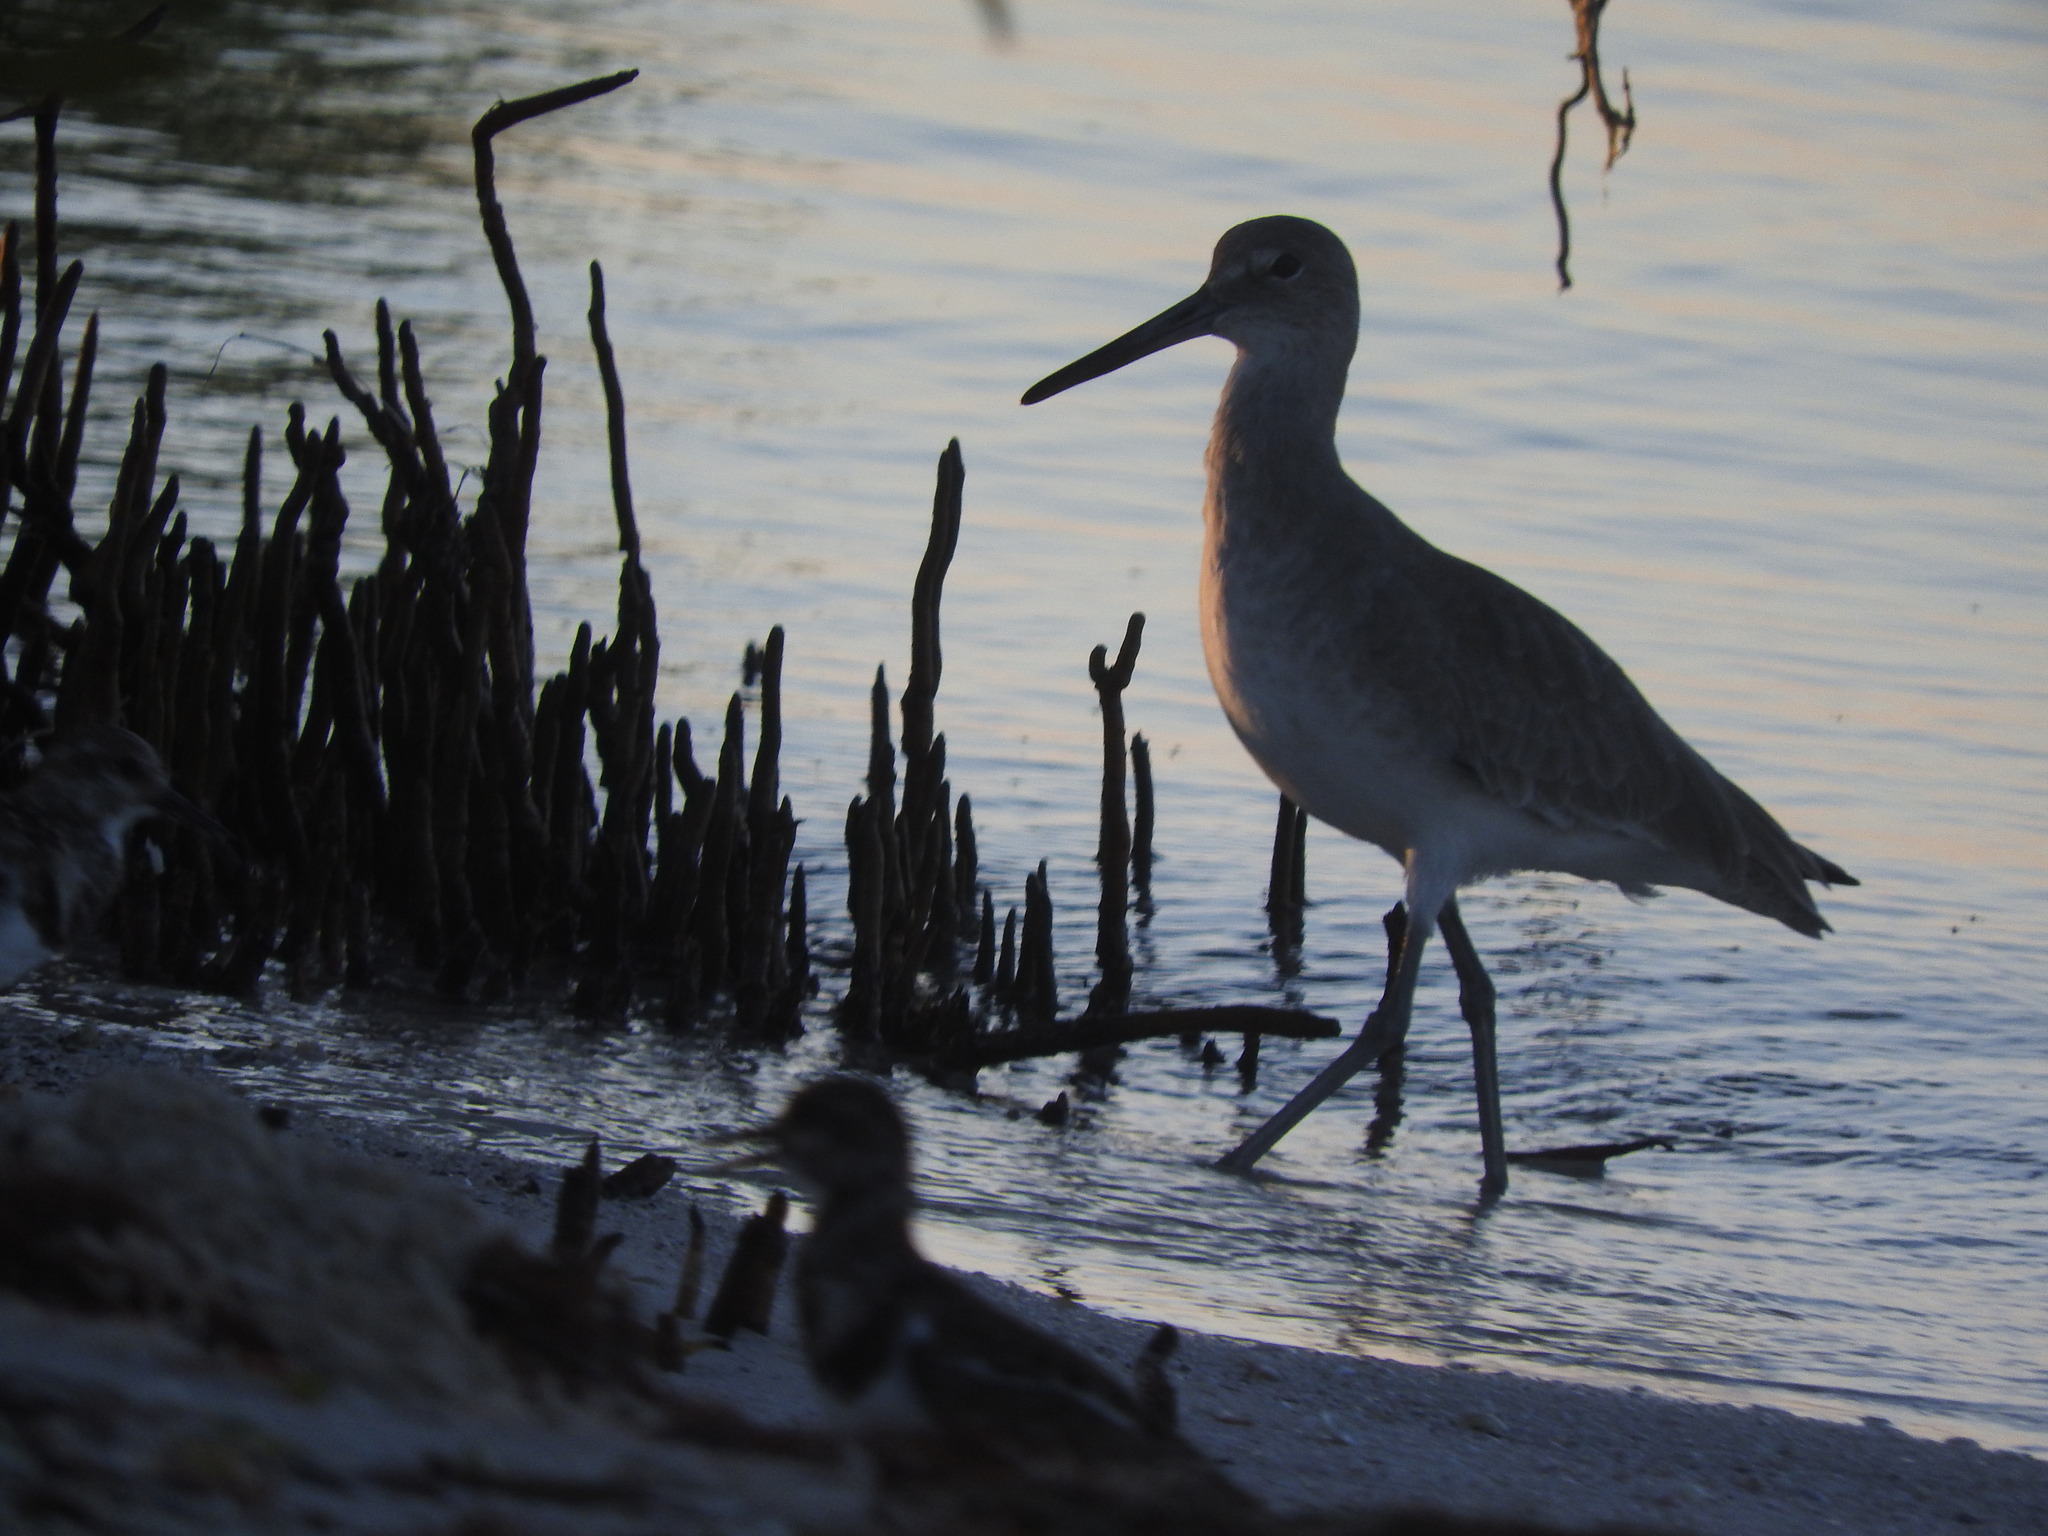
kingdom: Animalia
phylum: Chordata
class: Aves
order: Charadriiformes
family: Scolopacidae
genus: Tringa
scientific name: Tringa semipalmata
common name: Willet
